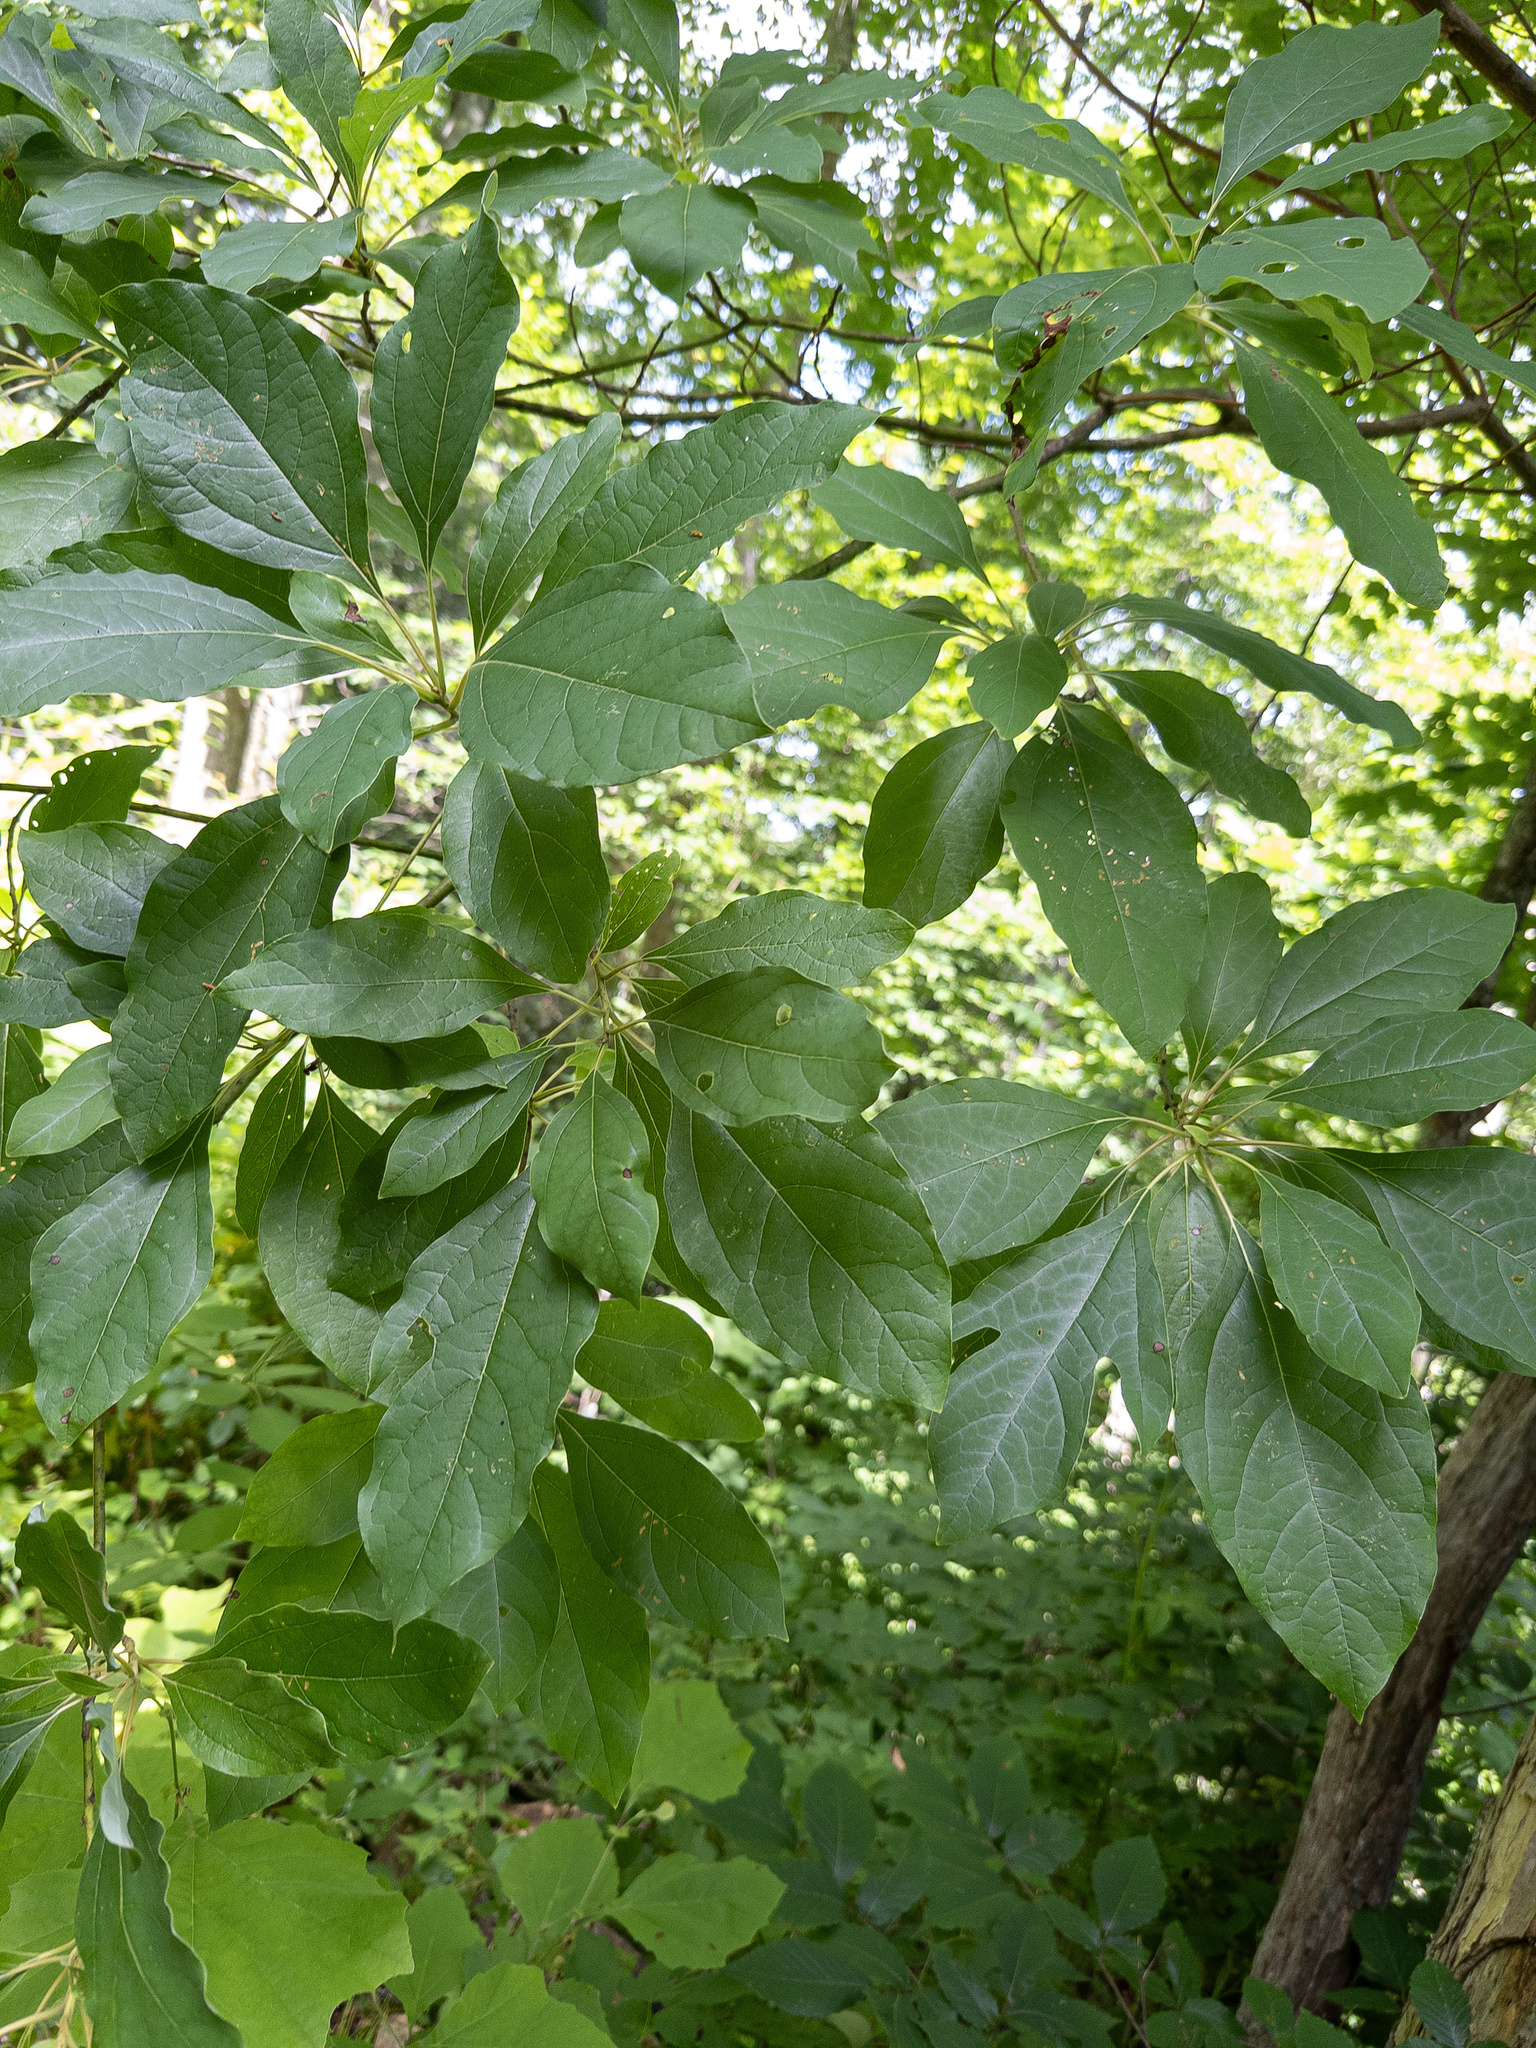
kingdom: Plantae
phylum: Tracheophyta
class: Magnoliopsida
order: Laurales
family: Lauraceae
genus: Sassafras
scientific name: Sassafras albidum
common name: Sassafras
